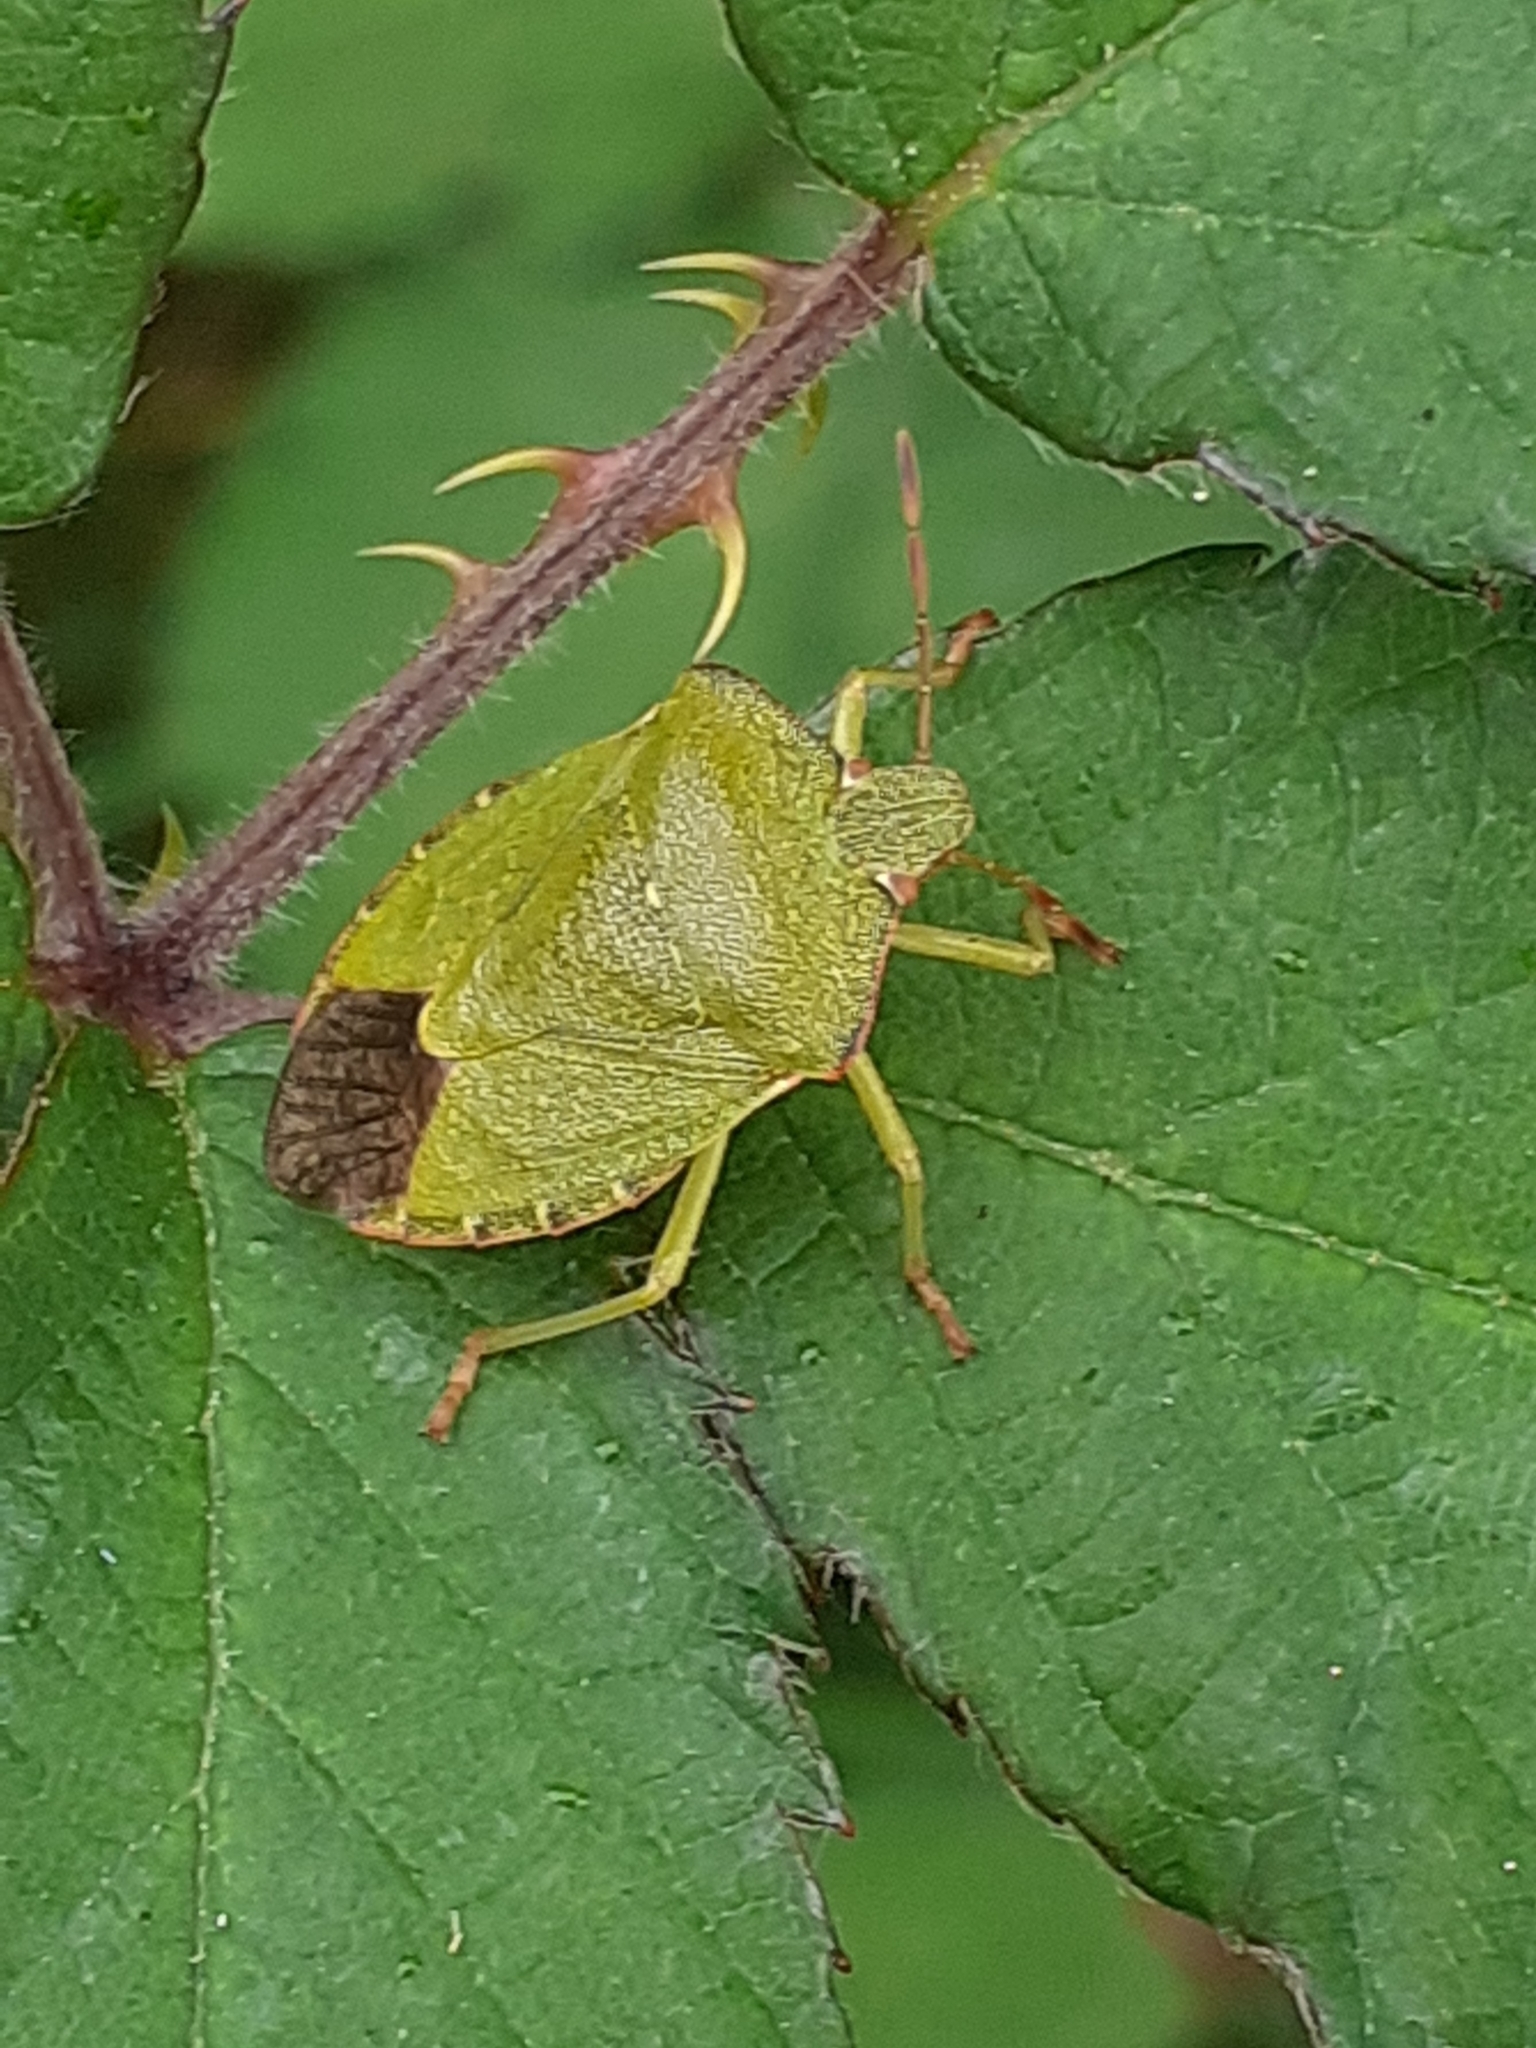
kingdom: Animalia
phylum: Arthropoda
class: Insecta
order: Hemiptera
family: Pentatomidae
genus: Palomena
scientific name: Palomena prasina
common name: Green shieldbug
